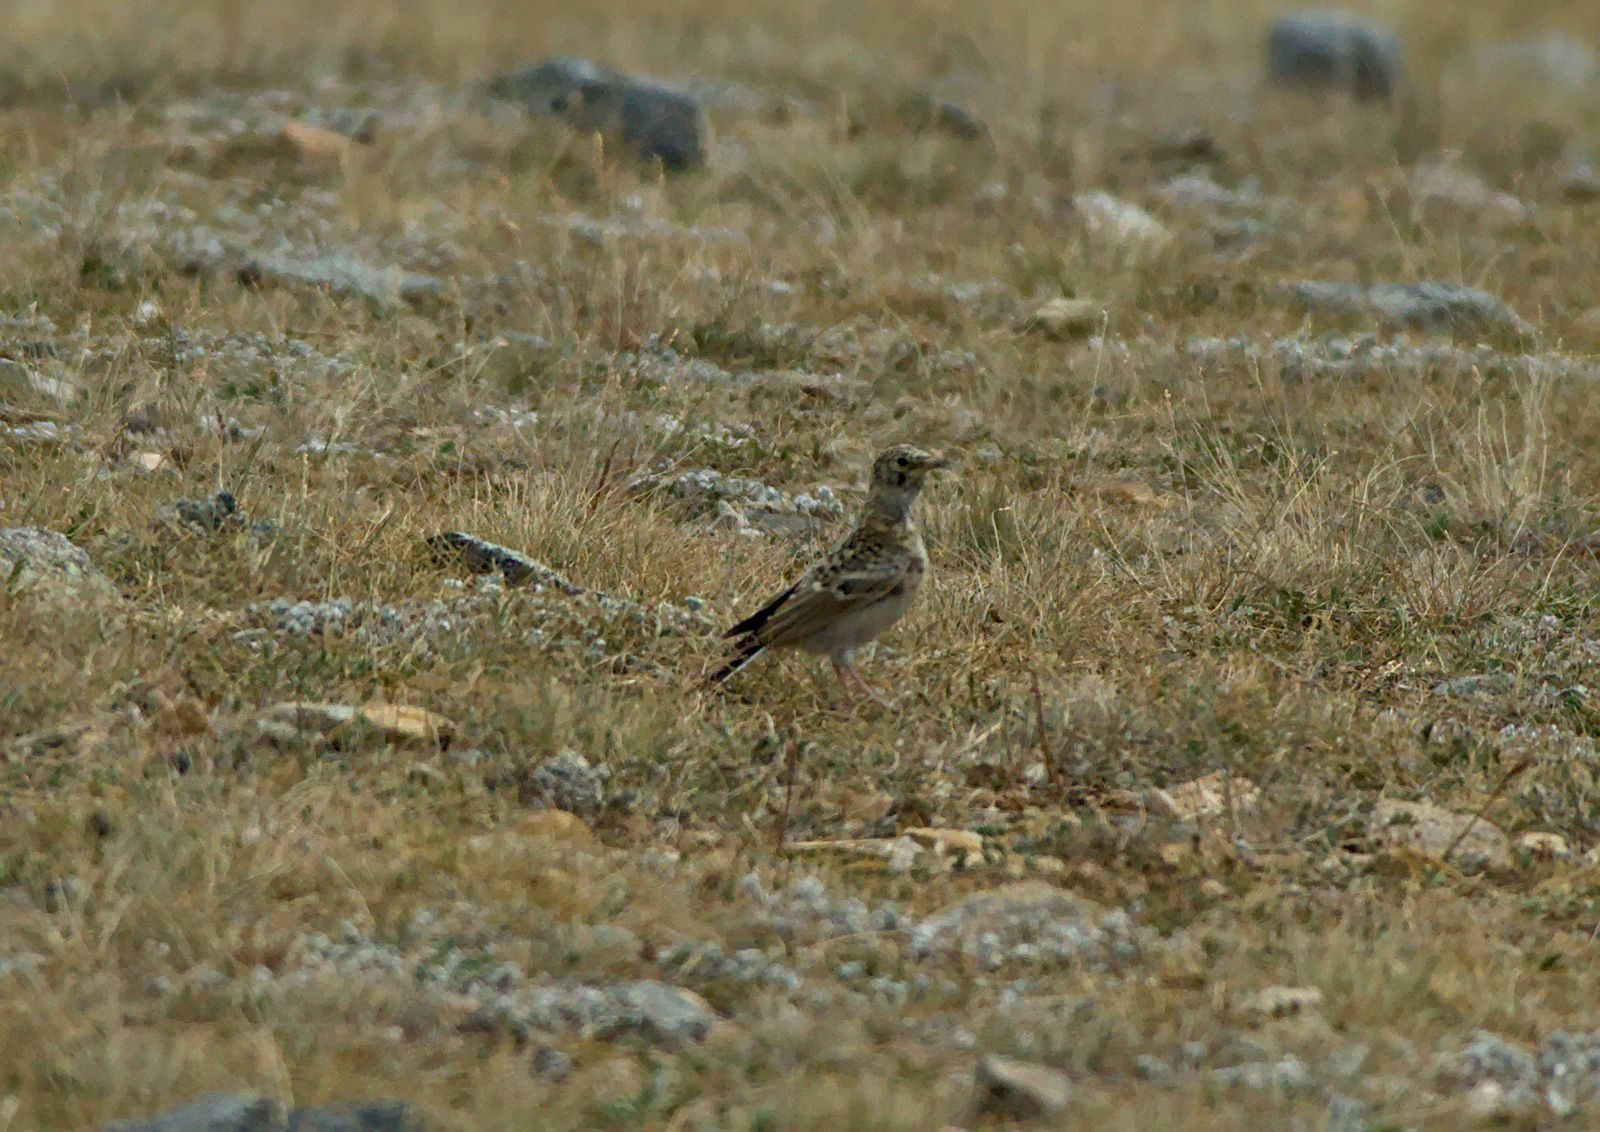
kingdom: Animalia
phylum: Chordata
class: Aves
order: Passeriformes
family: Alaudidae
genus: Eremophila
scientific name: Eremophila alpestris
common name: Horned lark
